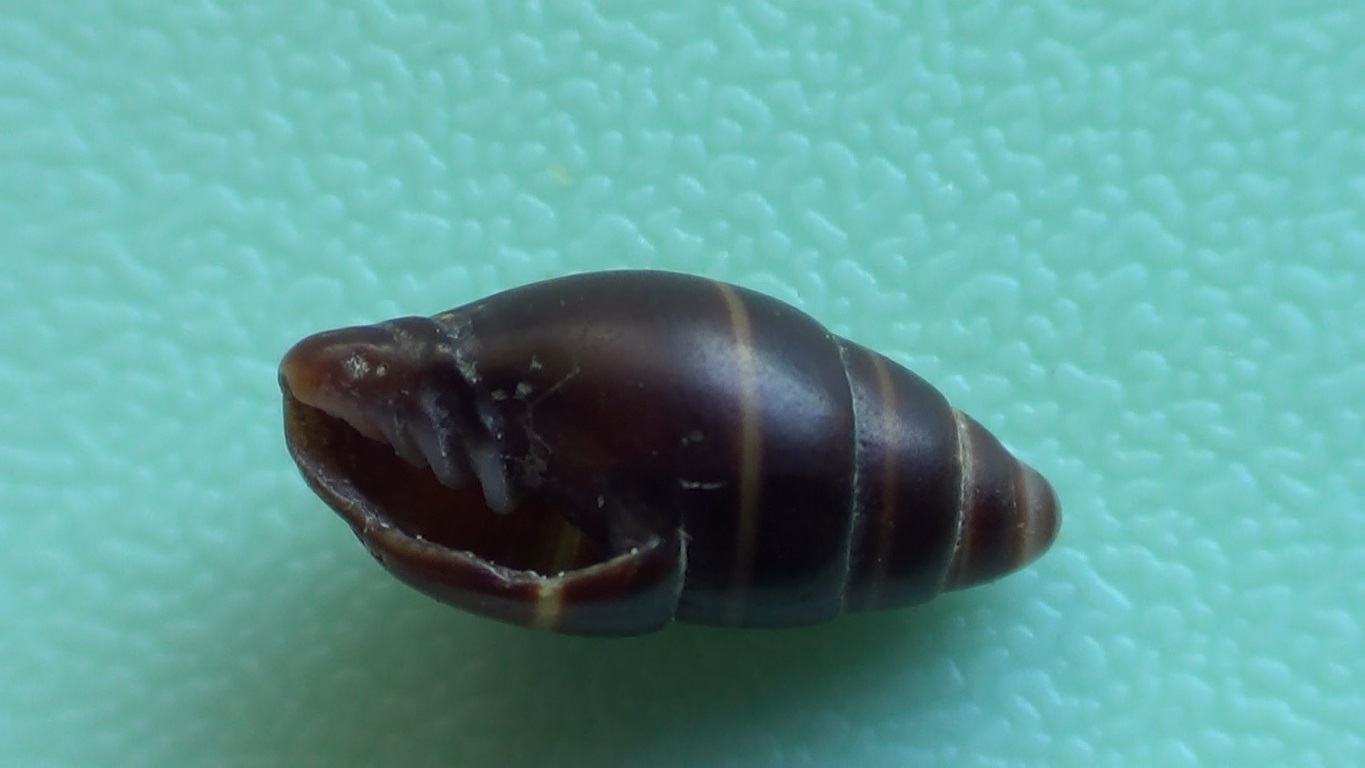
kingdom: Animalia
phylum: Mollusca
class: Gastropoda
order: Neogastropoda
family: Costellariidae
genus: Pusia
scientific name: Pusia ebenus
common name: Brown mitre
